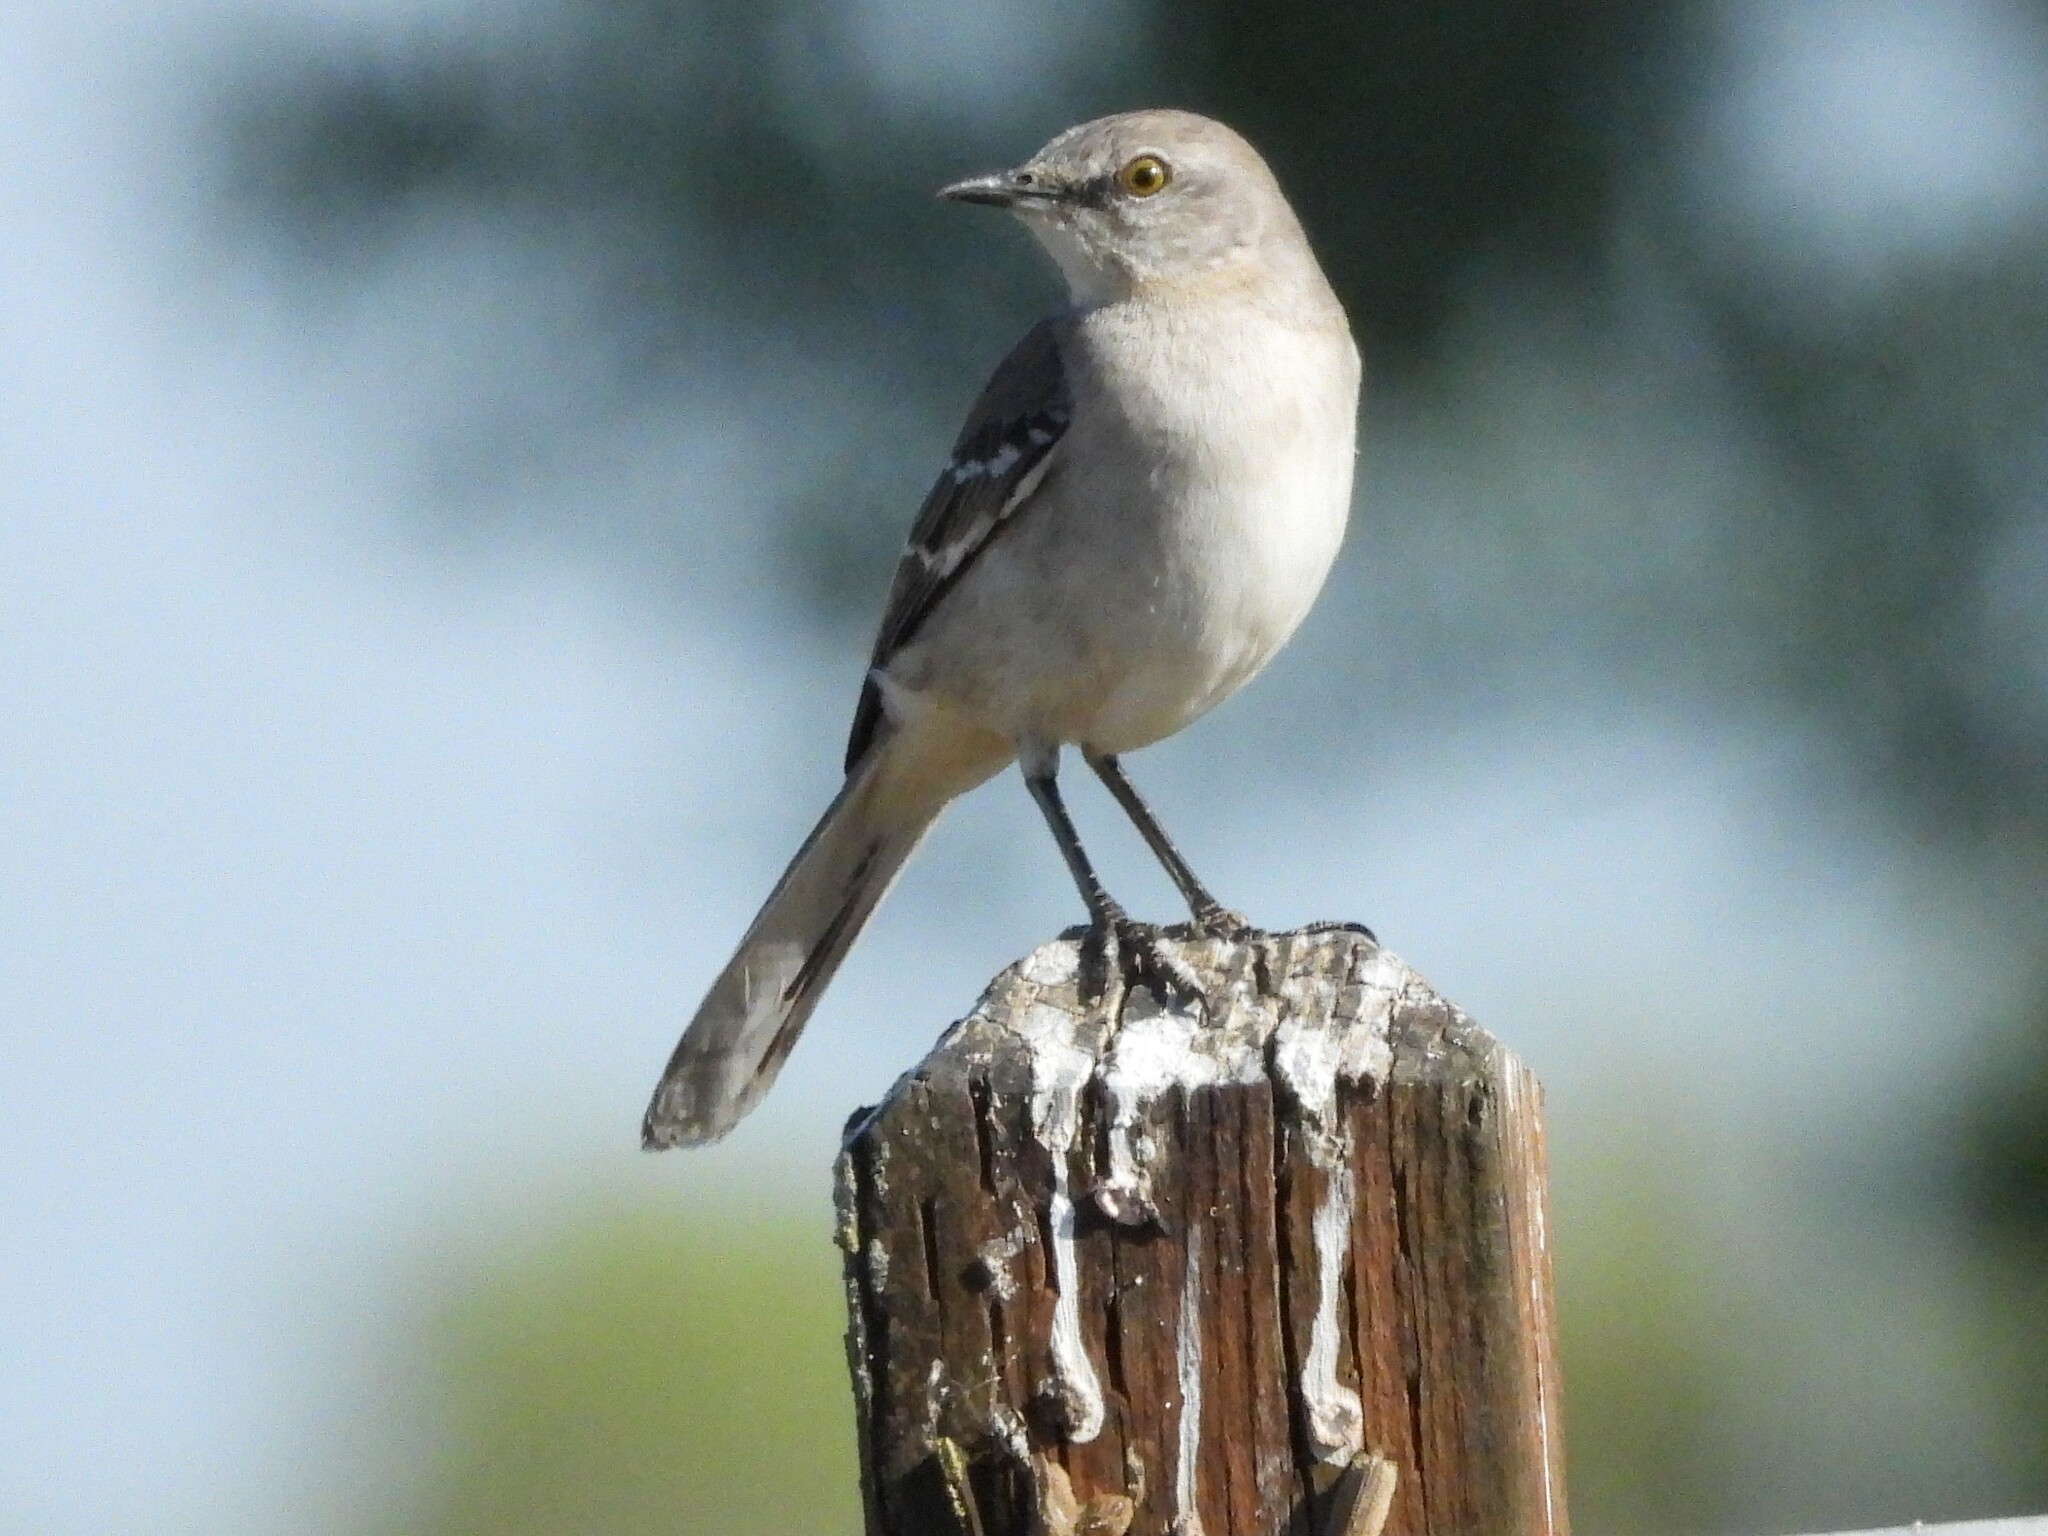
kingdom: Animalia
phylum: Chordata
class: Aves
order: Passeriformes
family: Mimidae
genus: Mimus
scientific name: Mimus polyglottos
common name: Northern mockingbird
